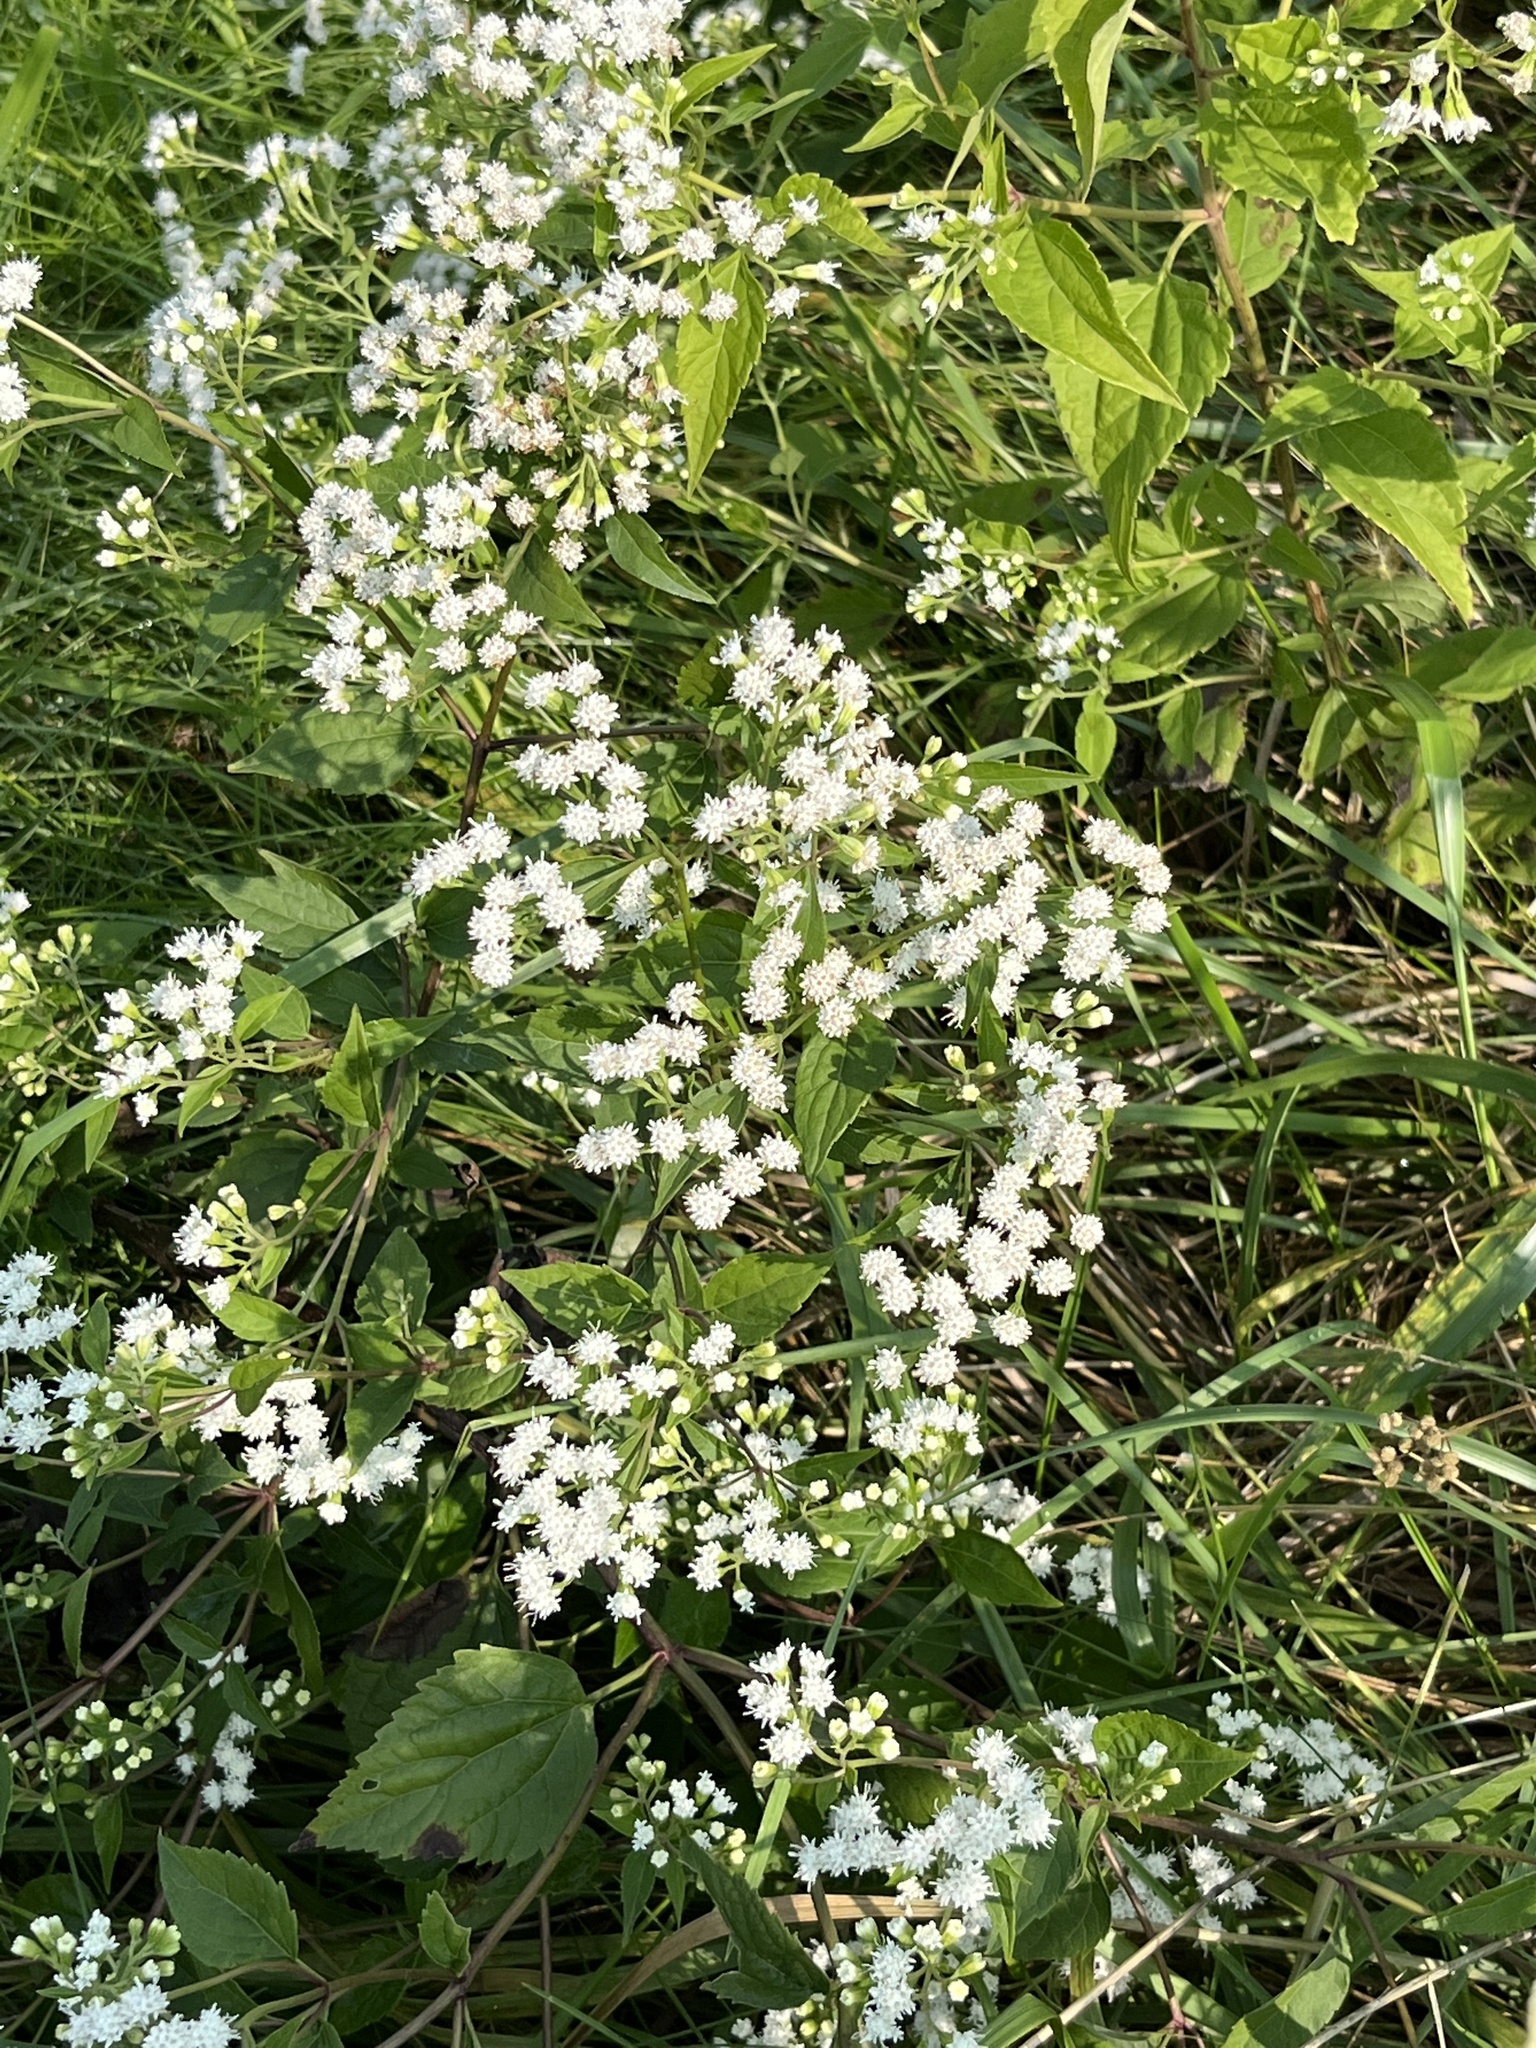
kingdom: Plantae
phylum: Tracheophyta
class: Magnoliopsida
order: Asterales
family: Asteraceae
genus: Ageratina
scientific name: Ageratina altissima
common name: White snakeroot
